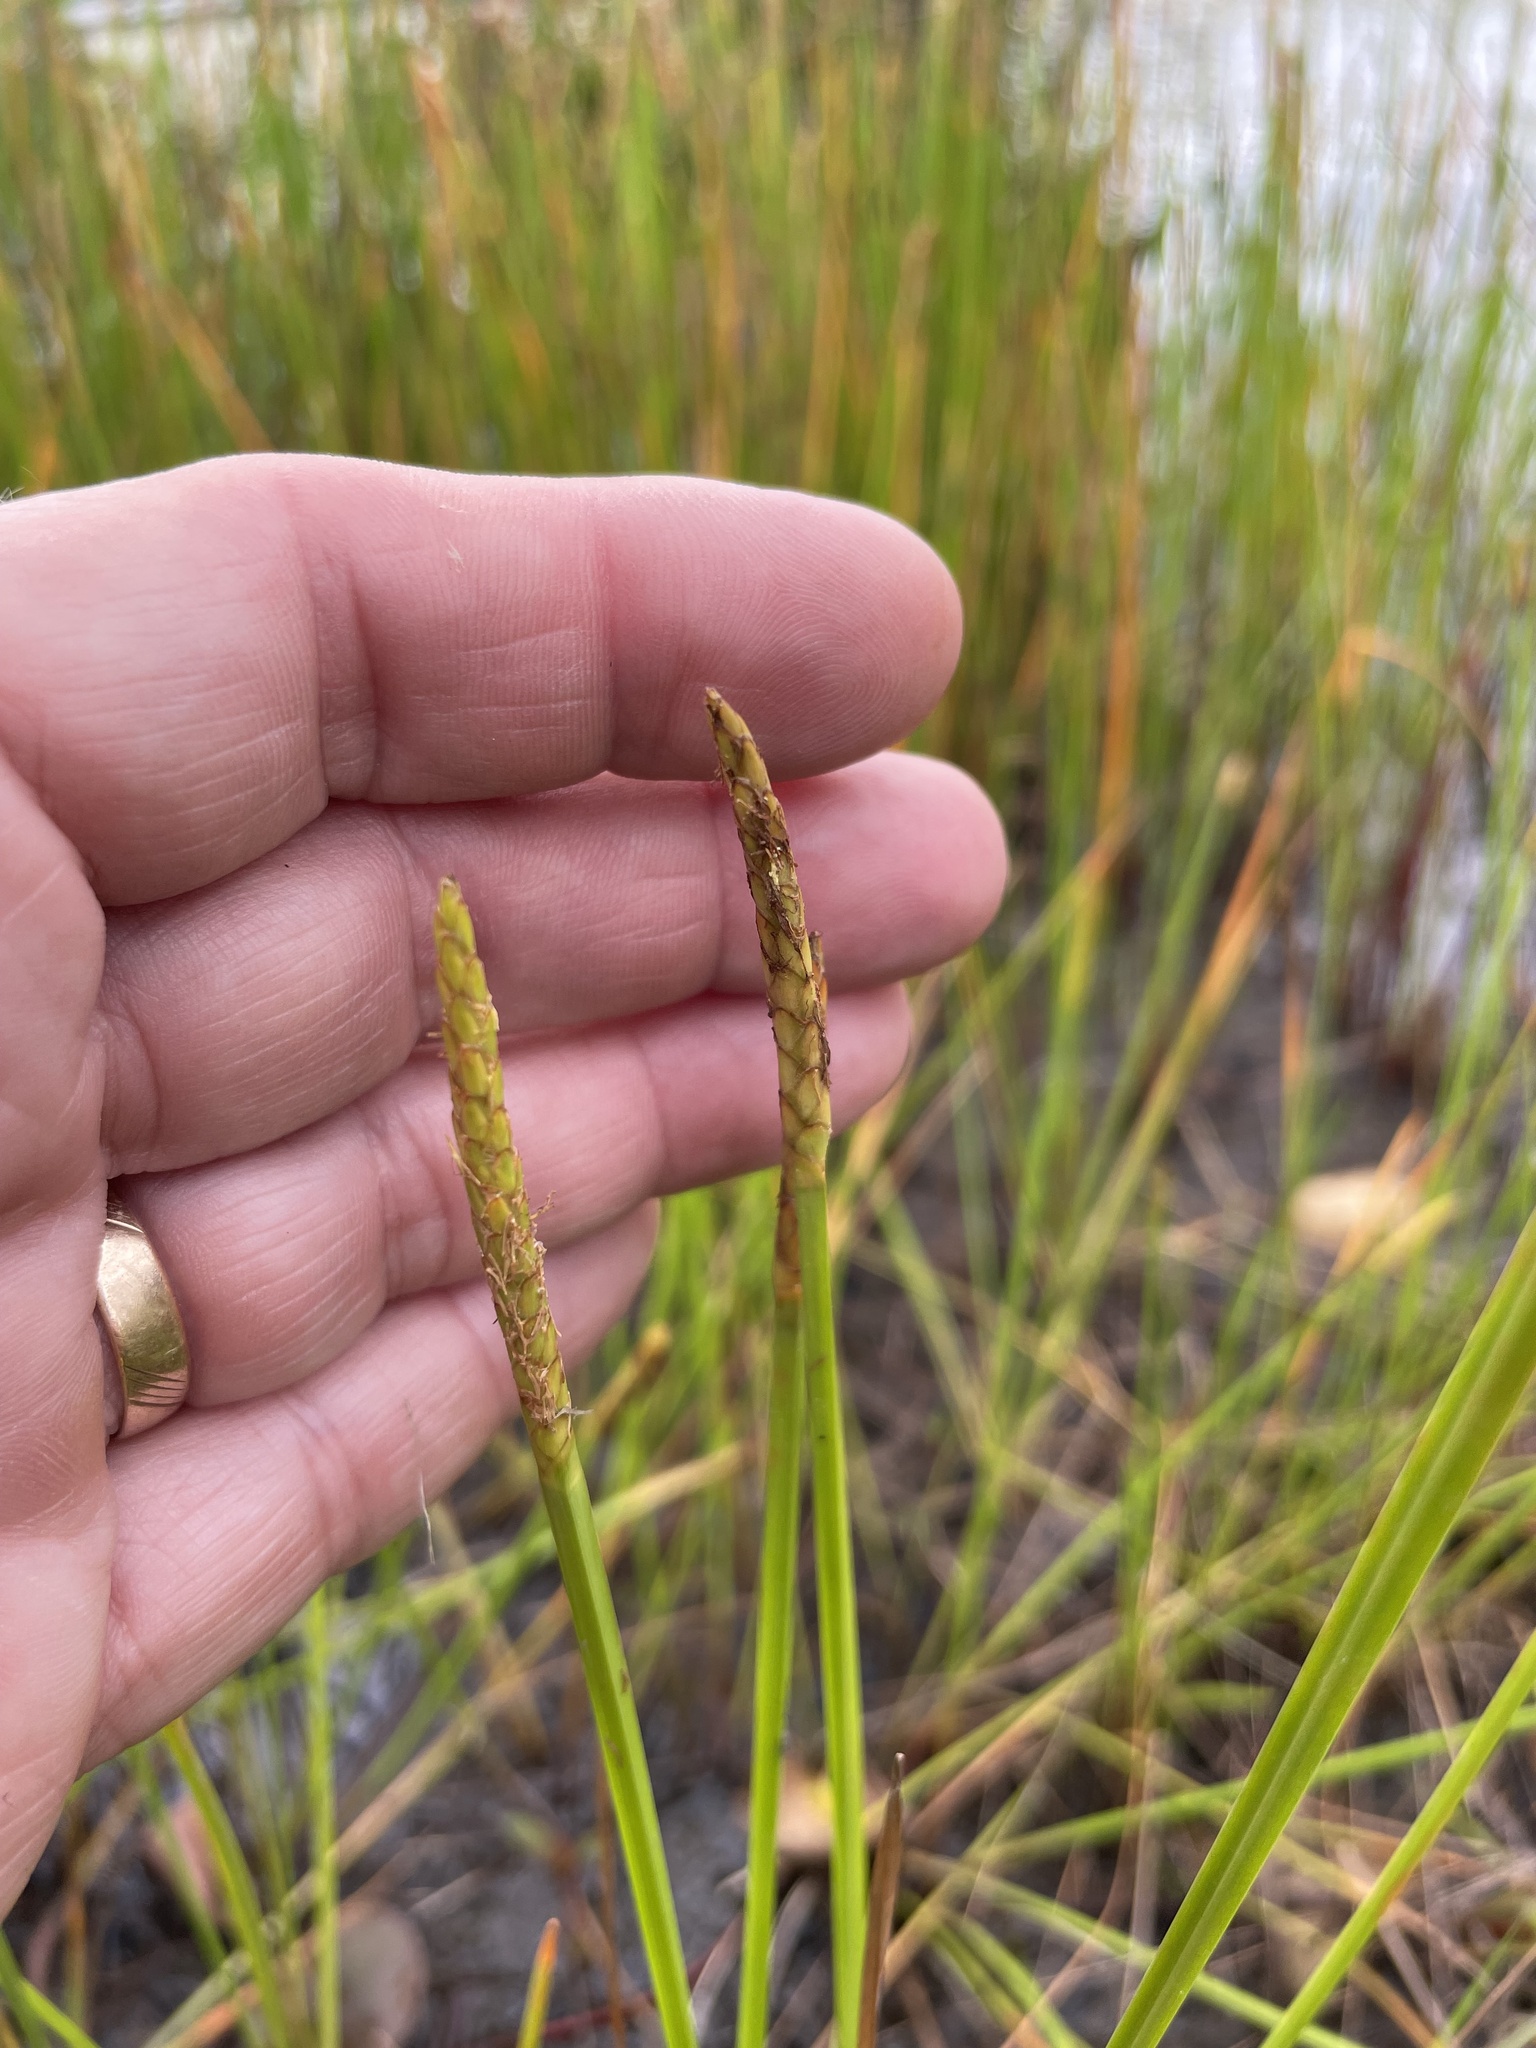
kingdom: Plantae
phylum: Tracheophyta
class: Liliopsida
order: Poales
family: Cyperaceae
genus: Eleocharis
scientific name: Eleocharis quadrangulata
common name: Square-stem spike-rush
